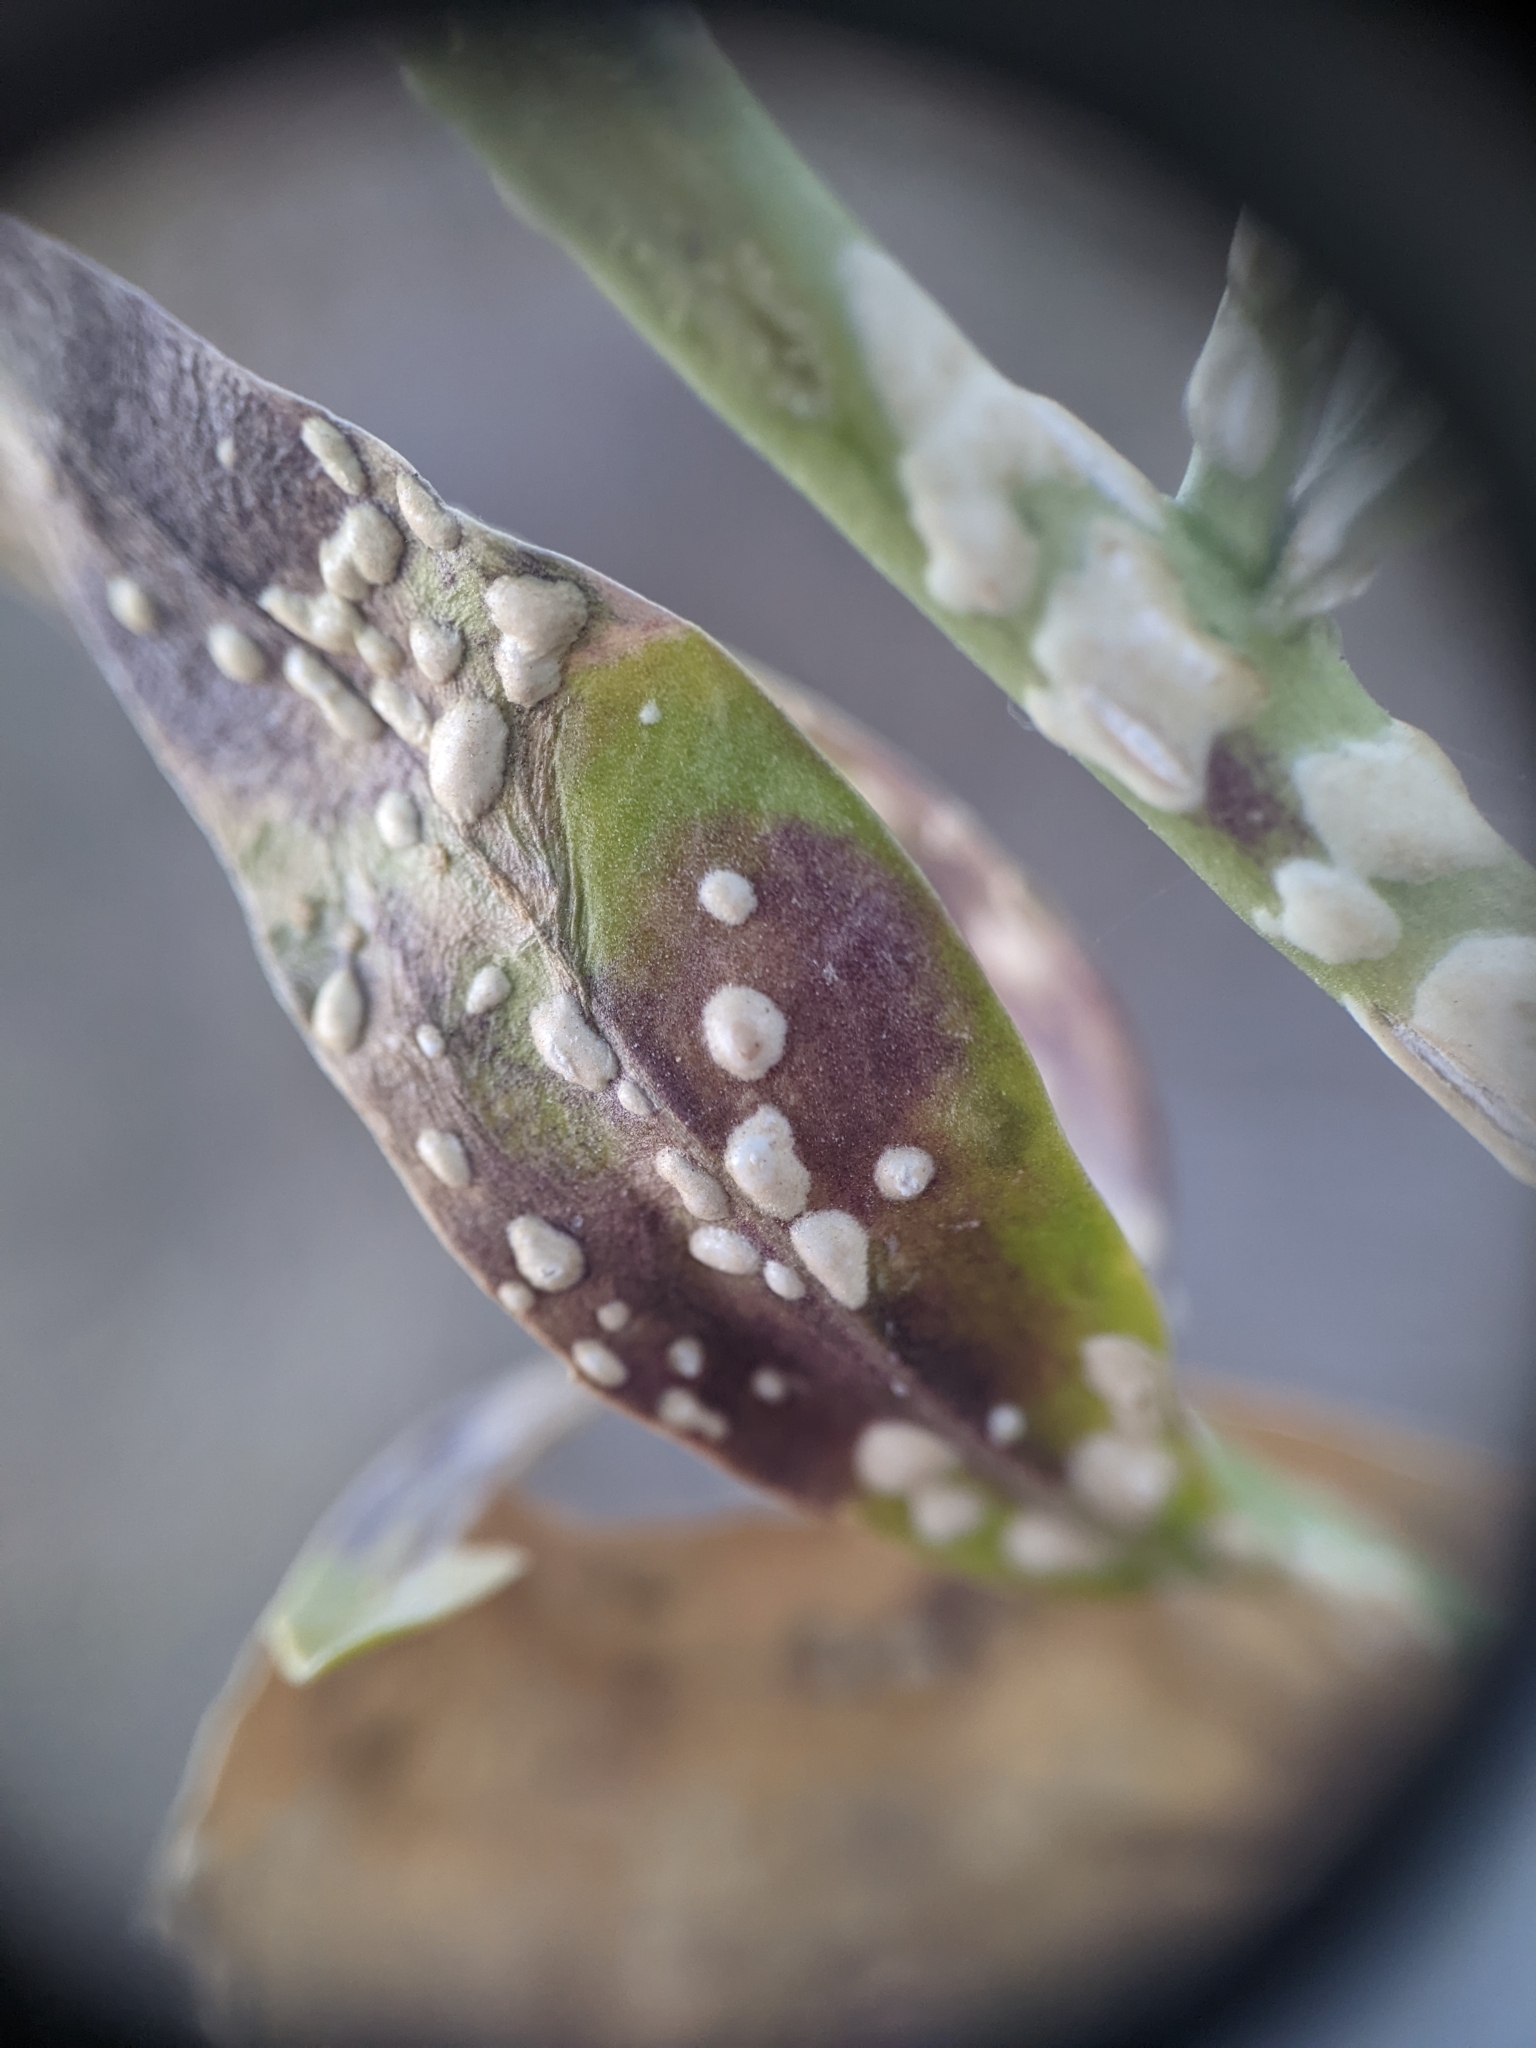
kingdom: Chromista
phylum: Oomycota
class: Peronosporea
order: Albuginales
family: Albuginaceae
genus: Albugo
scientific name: Albugo candida
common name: Crucifer white blister
